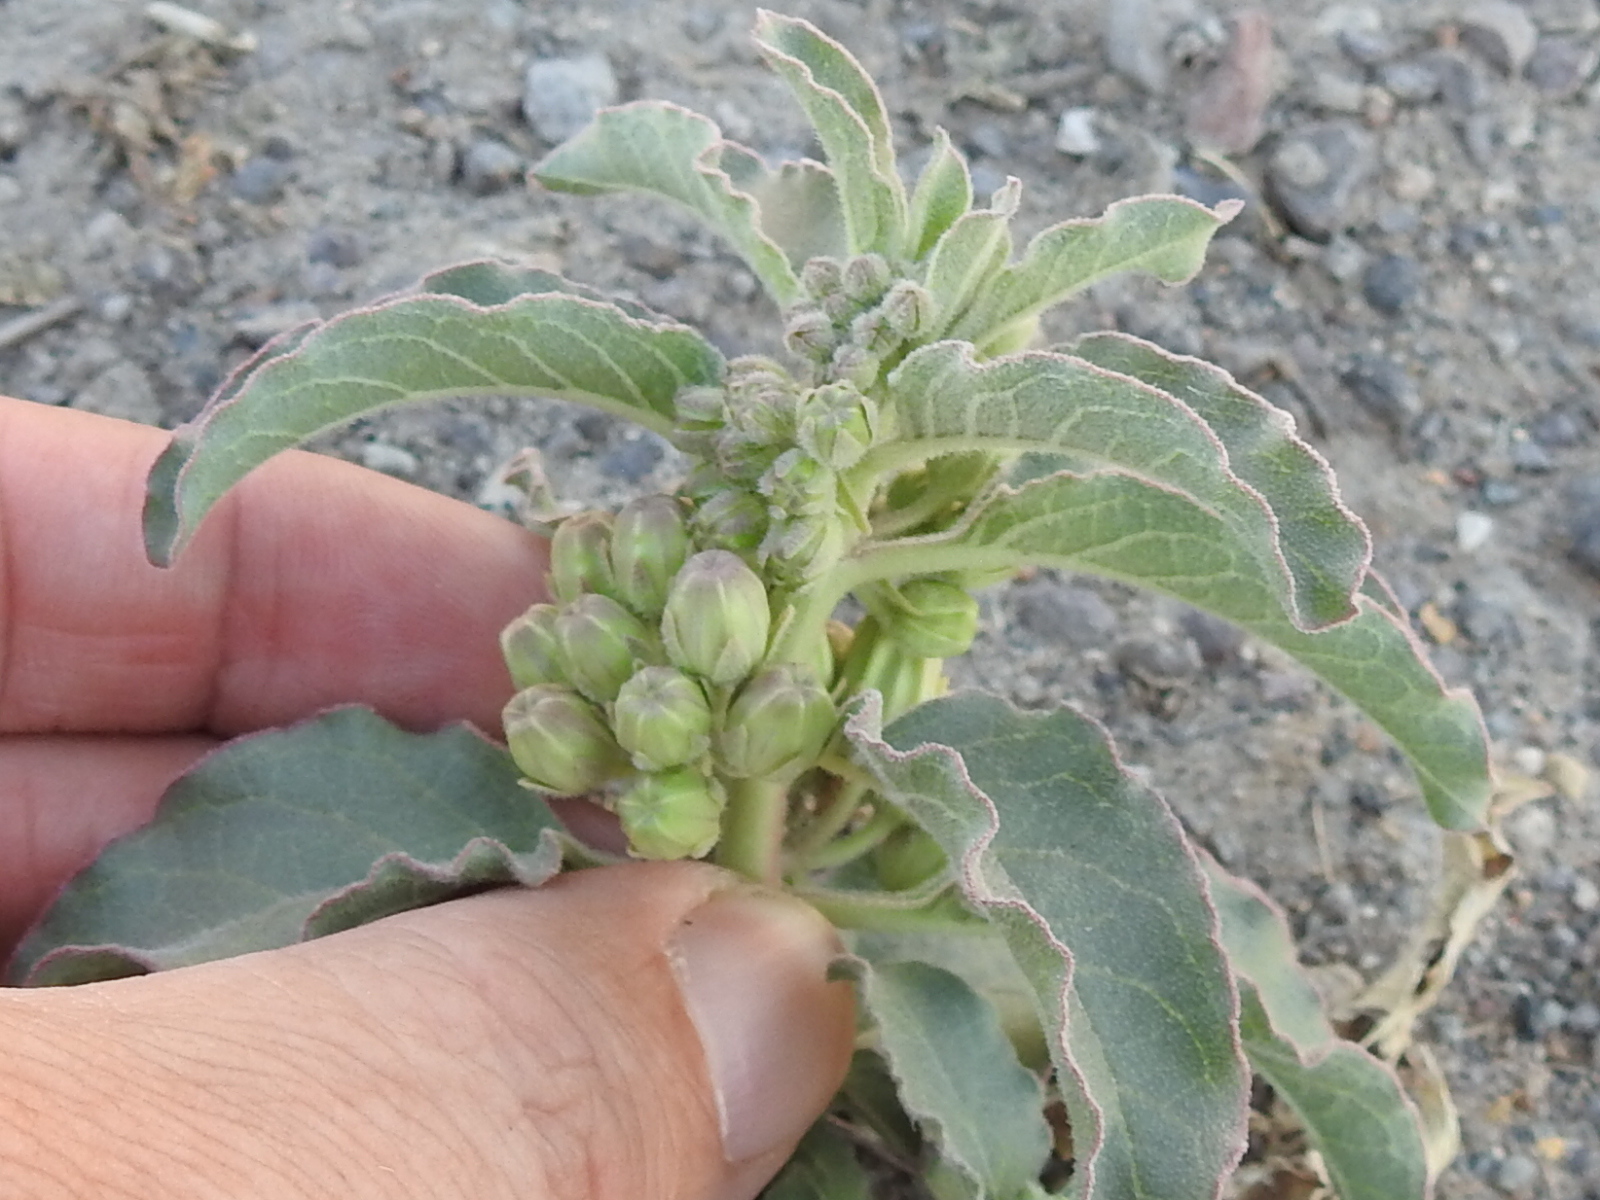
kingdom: Plantae
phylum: Tracheophyta
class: Magnoliopsida
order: Gentianales
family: Apocynaceae
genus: Asclepias
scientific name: Asclepias oenotheroides
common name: Zizotes milkweed
